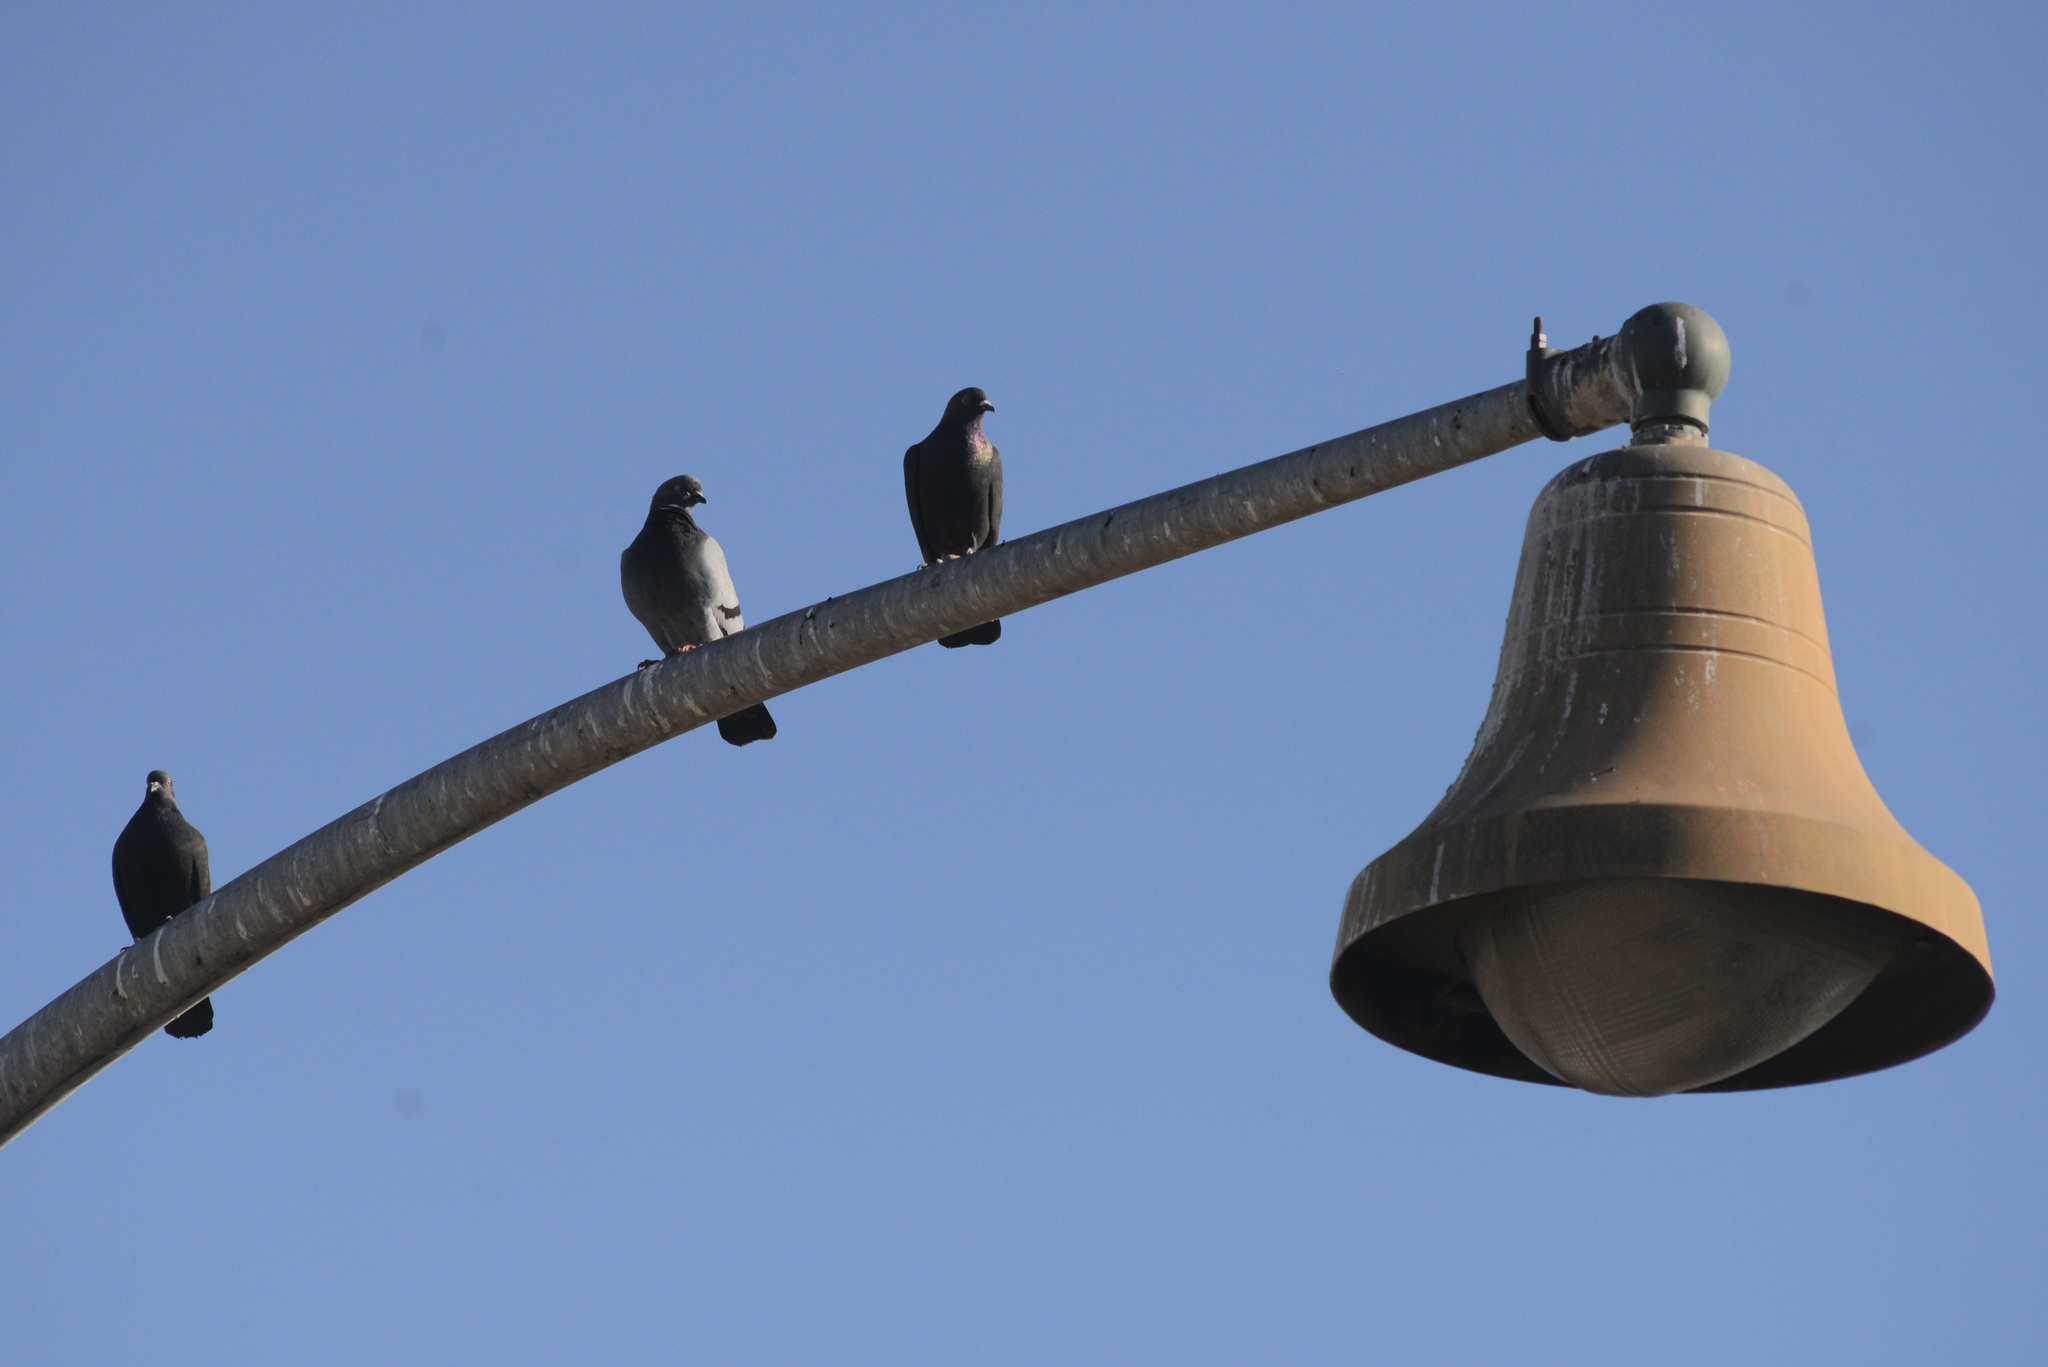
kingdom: Animalia
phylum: Chordata
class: Aves
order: Columbiformes
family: Columbidae
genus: Columba
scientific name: Columba livia
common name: Rock pigeon
